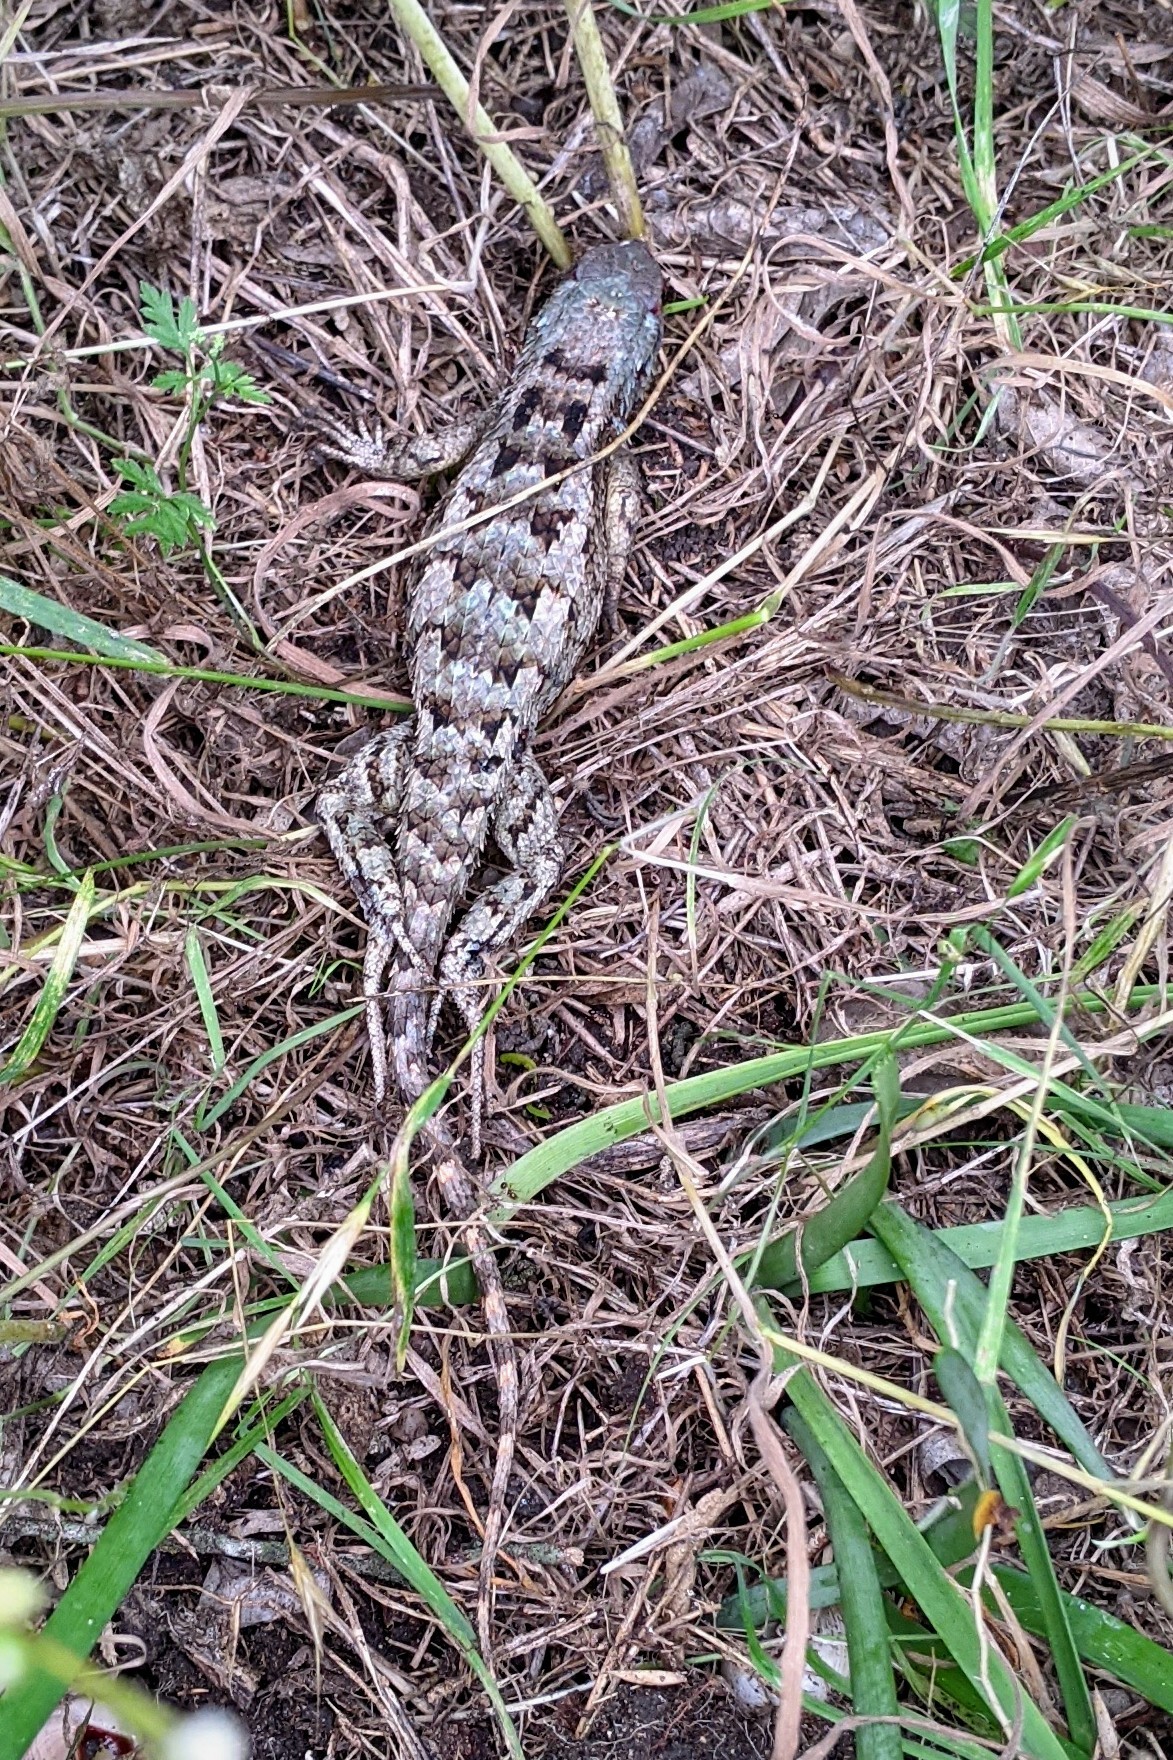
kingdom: Animalia
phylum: Chordata
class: Squamata
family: Phrynosomatidae
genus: Sceloporus
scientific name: Sceloporus olivaceus
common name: Texas spiny lizard
